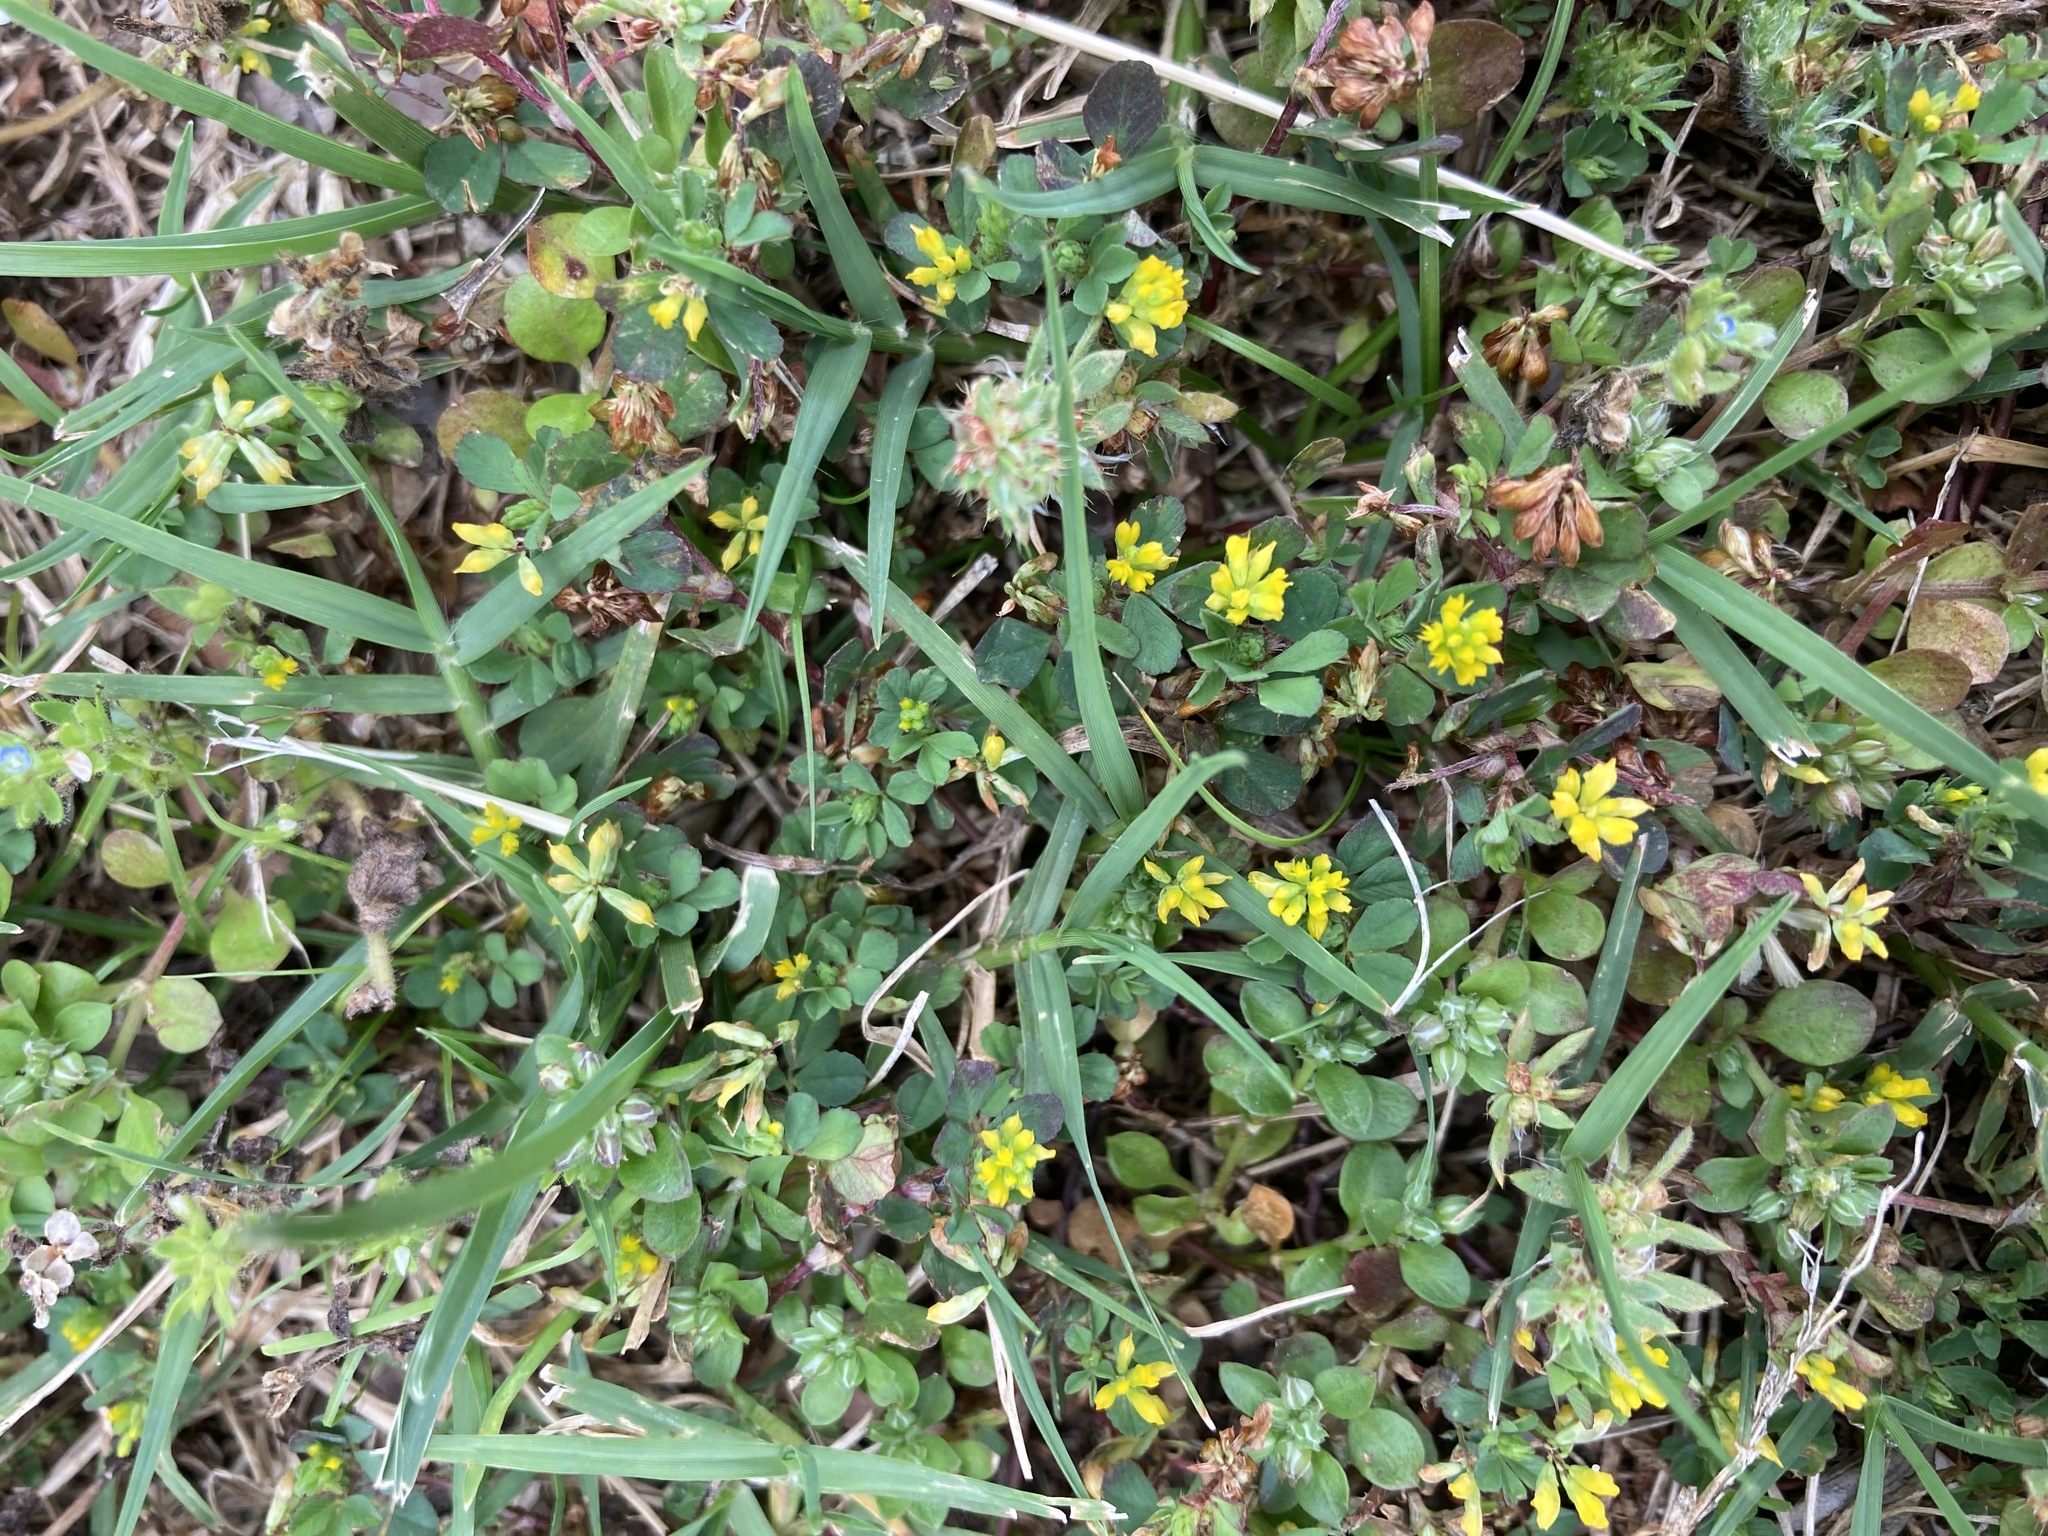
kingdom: Plantae
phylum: Tracheophyta
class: Magnoliopsida
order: Fabales
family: Fabaceae
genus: Trifolium
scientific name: Trifolium dubium
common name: Suckling clover
